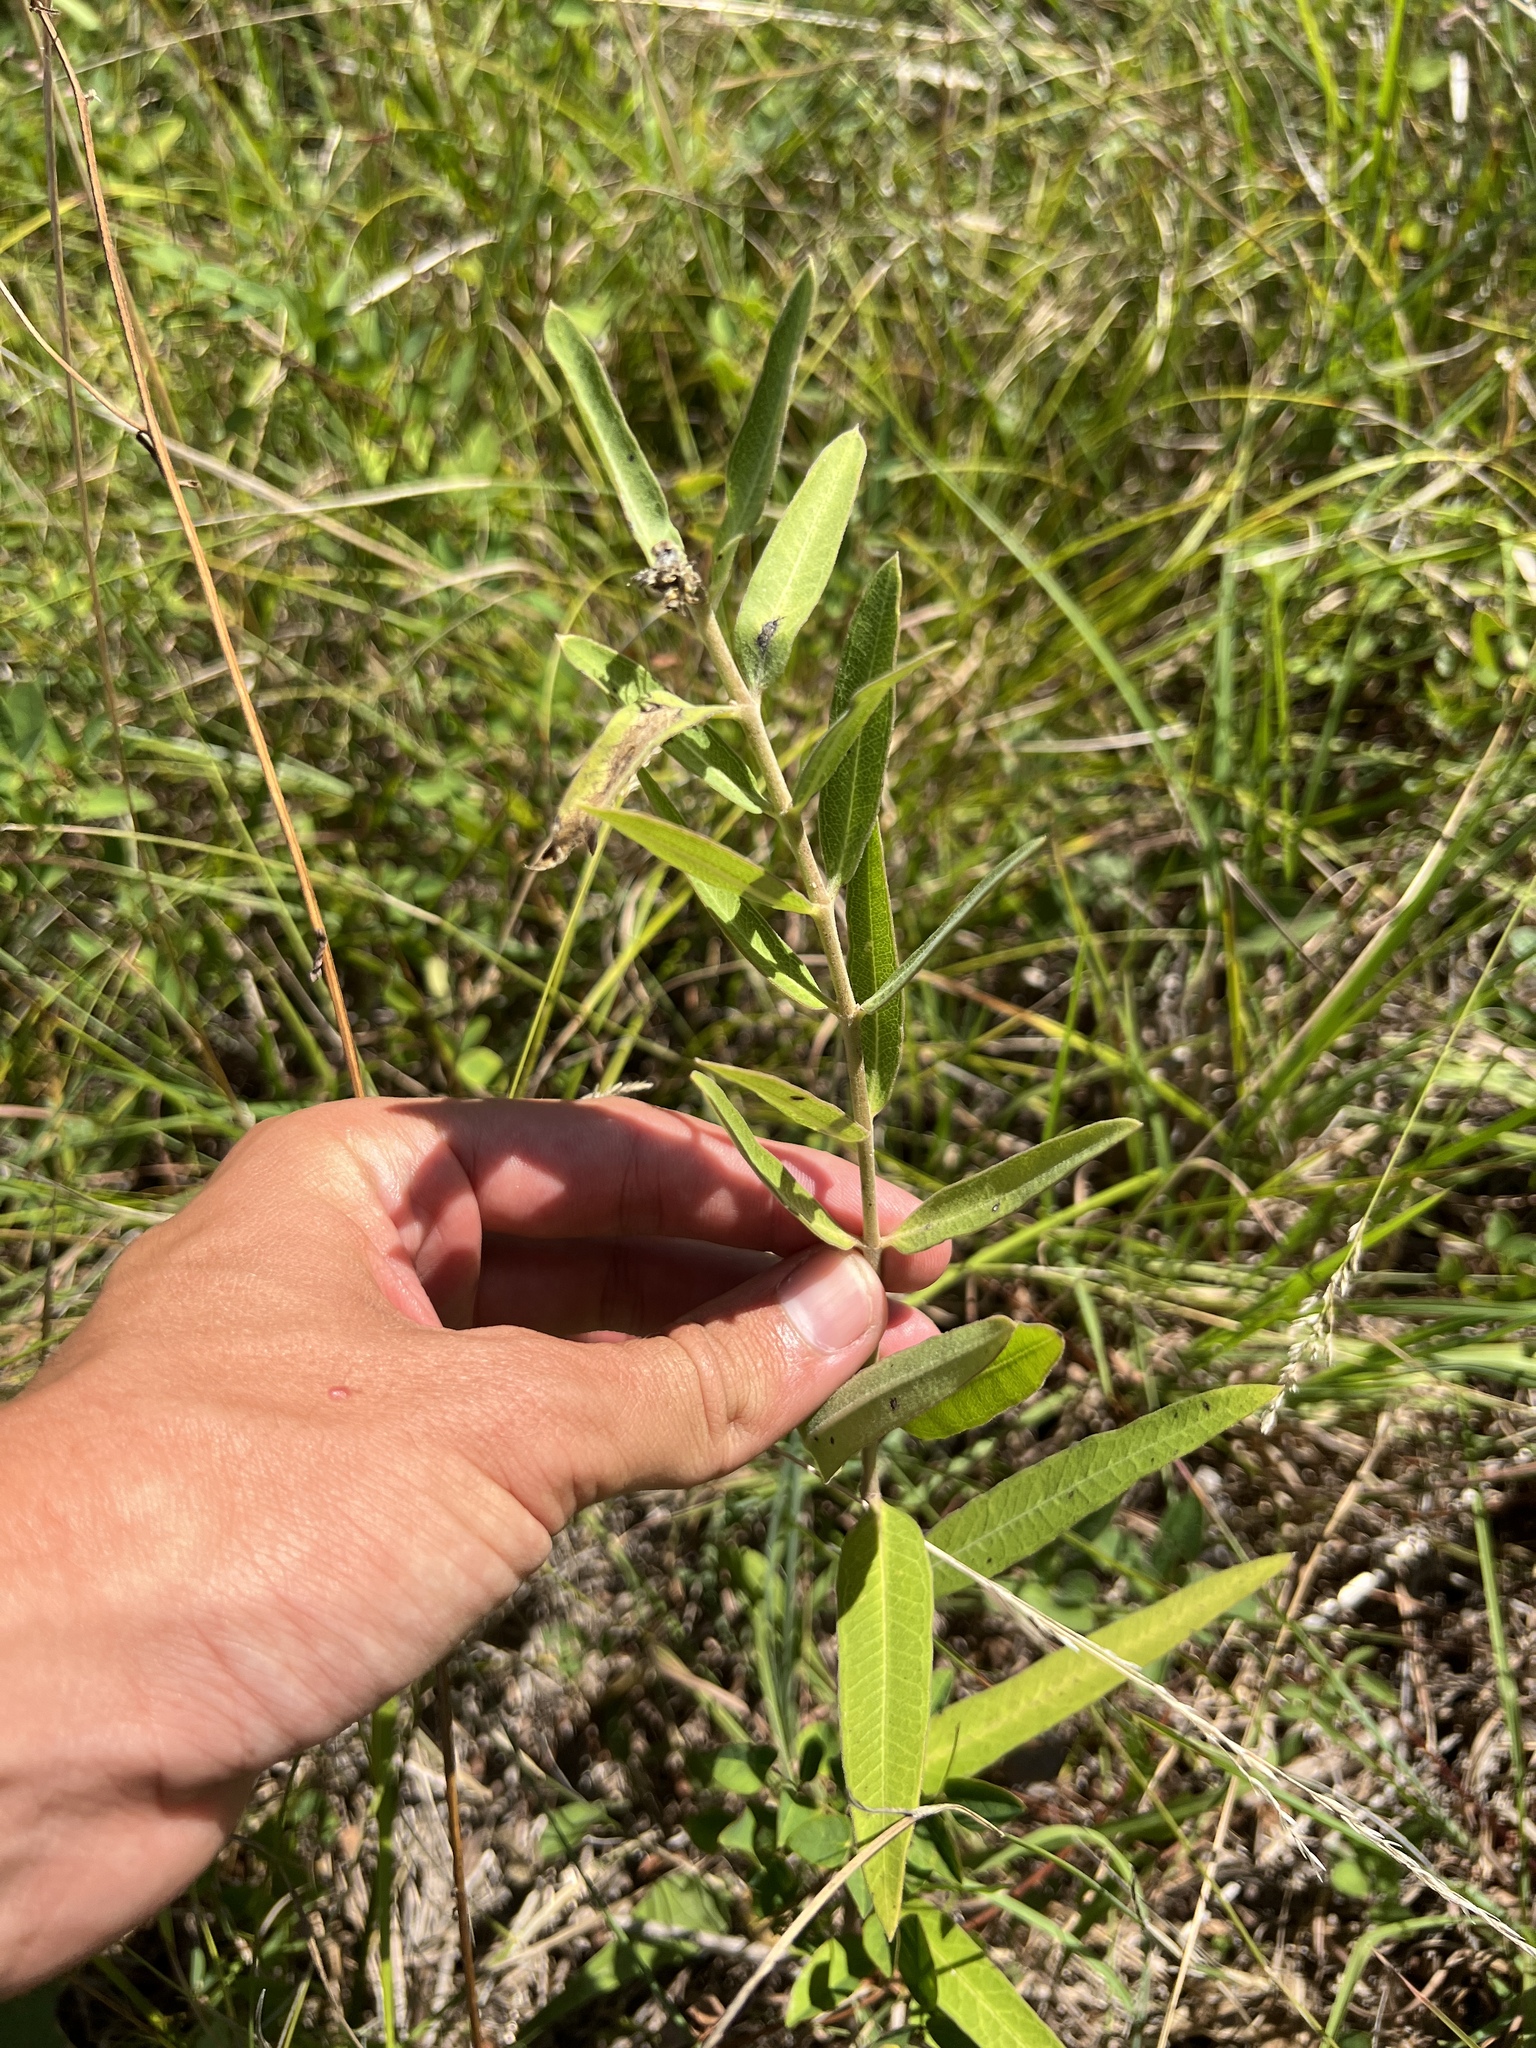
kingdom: Plantae
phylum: Tracheophyta
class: Magnoliopsida
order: Gentianales
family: Apocynaceae
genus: Asclepias
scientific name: Asclepias viridiflora
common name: Green comet milkweed
